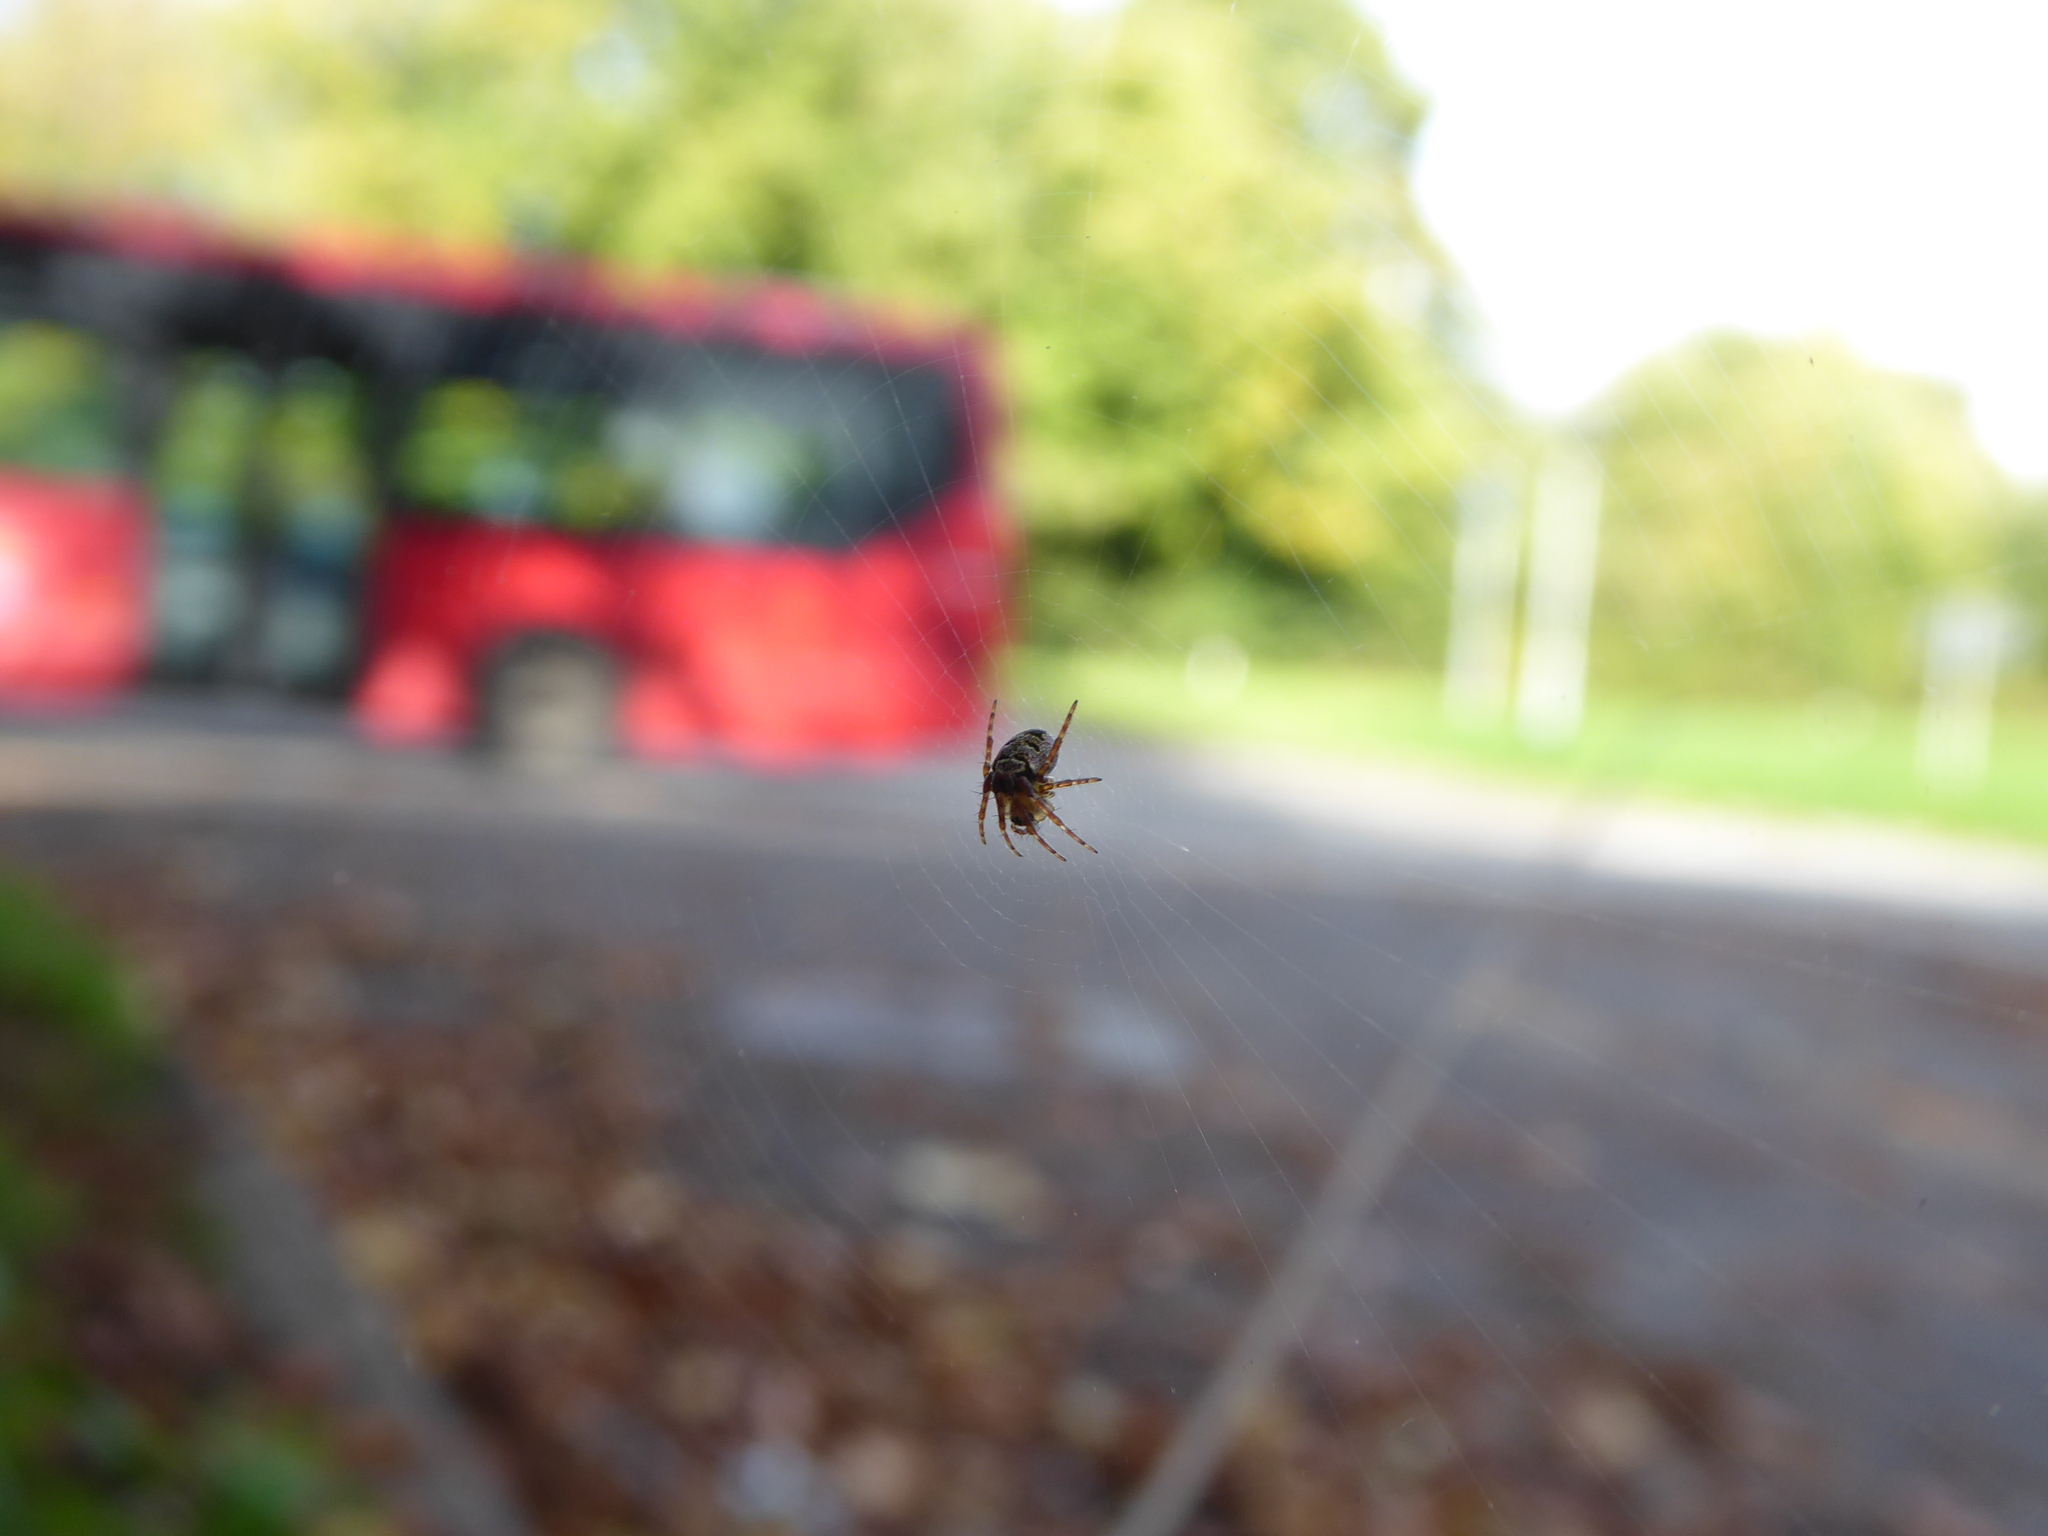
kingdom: Animalia
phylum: Arthropoda
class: Arachnida
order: Araneae
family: Araneidae
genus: Zilla
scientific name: Zilla diodia
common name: Zilla diodia
